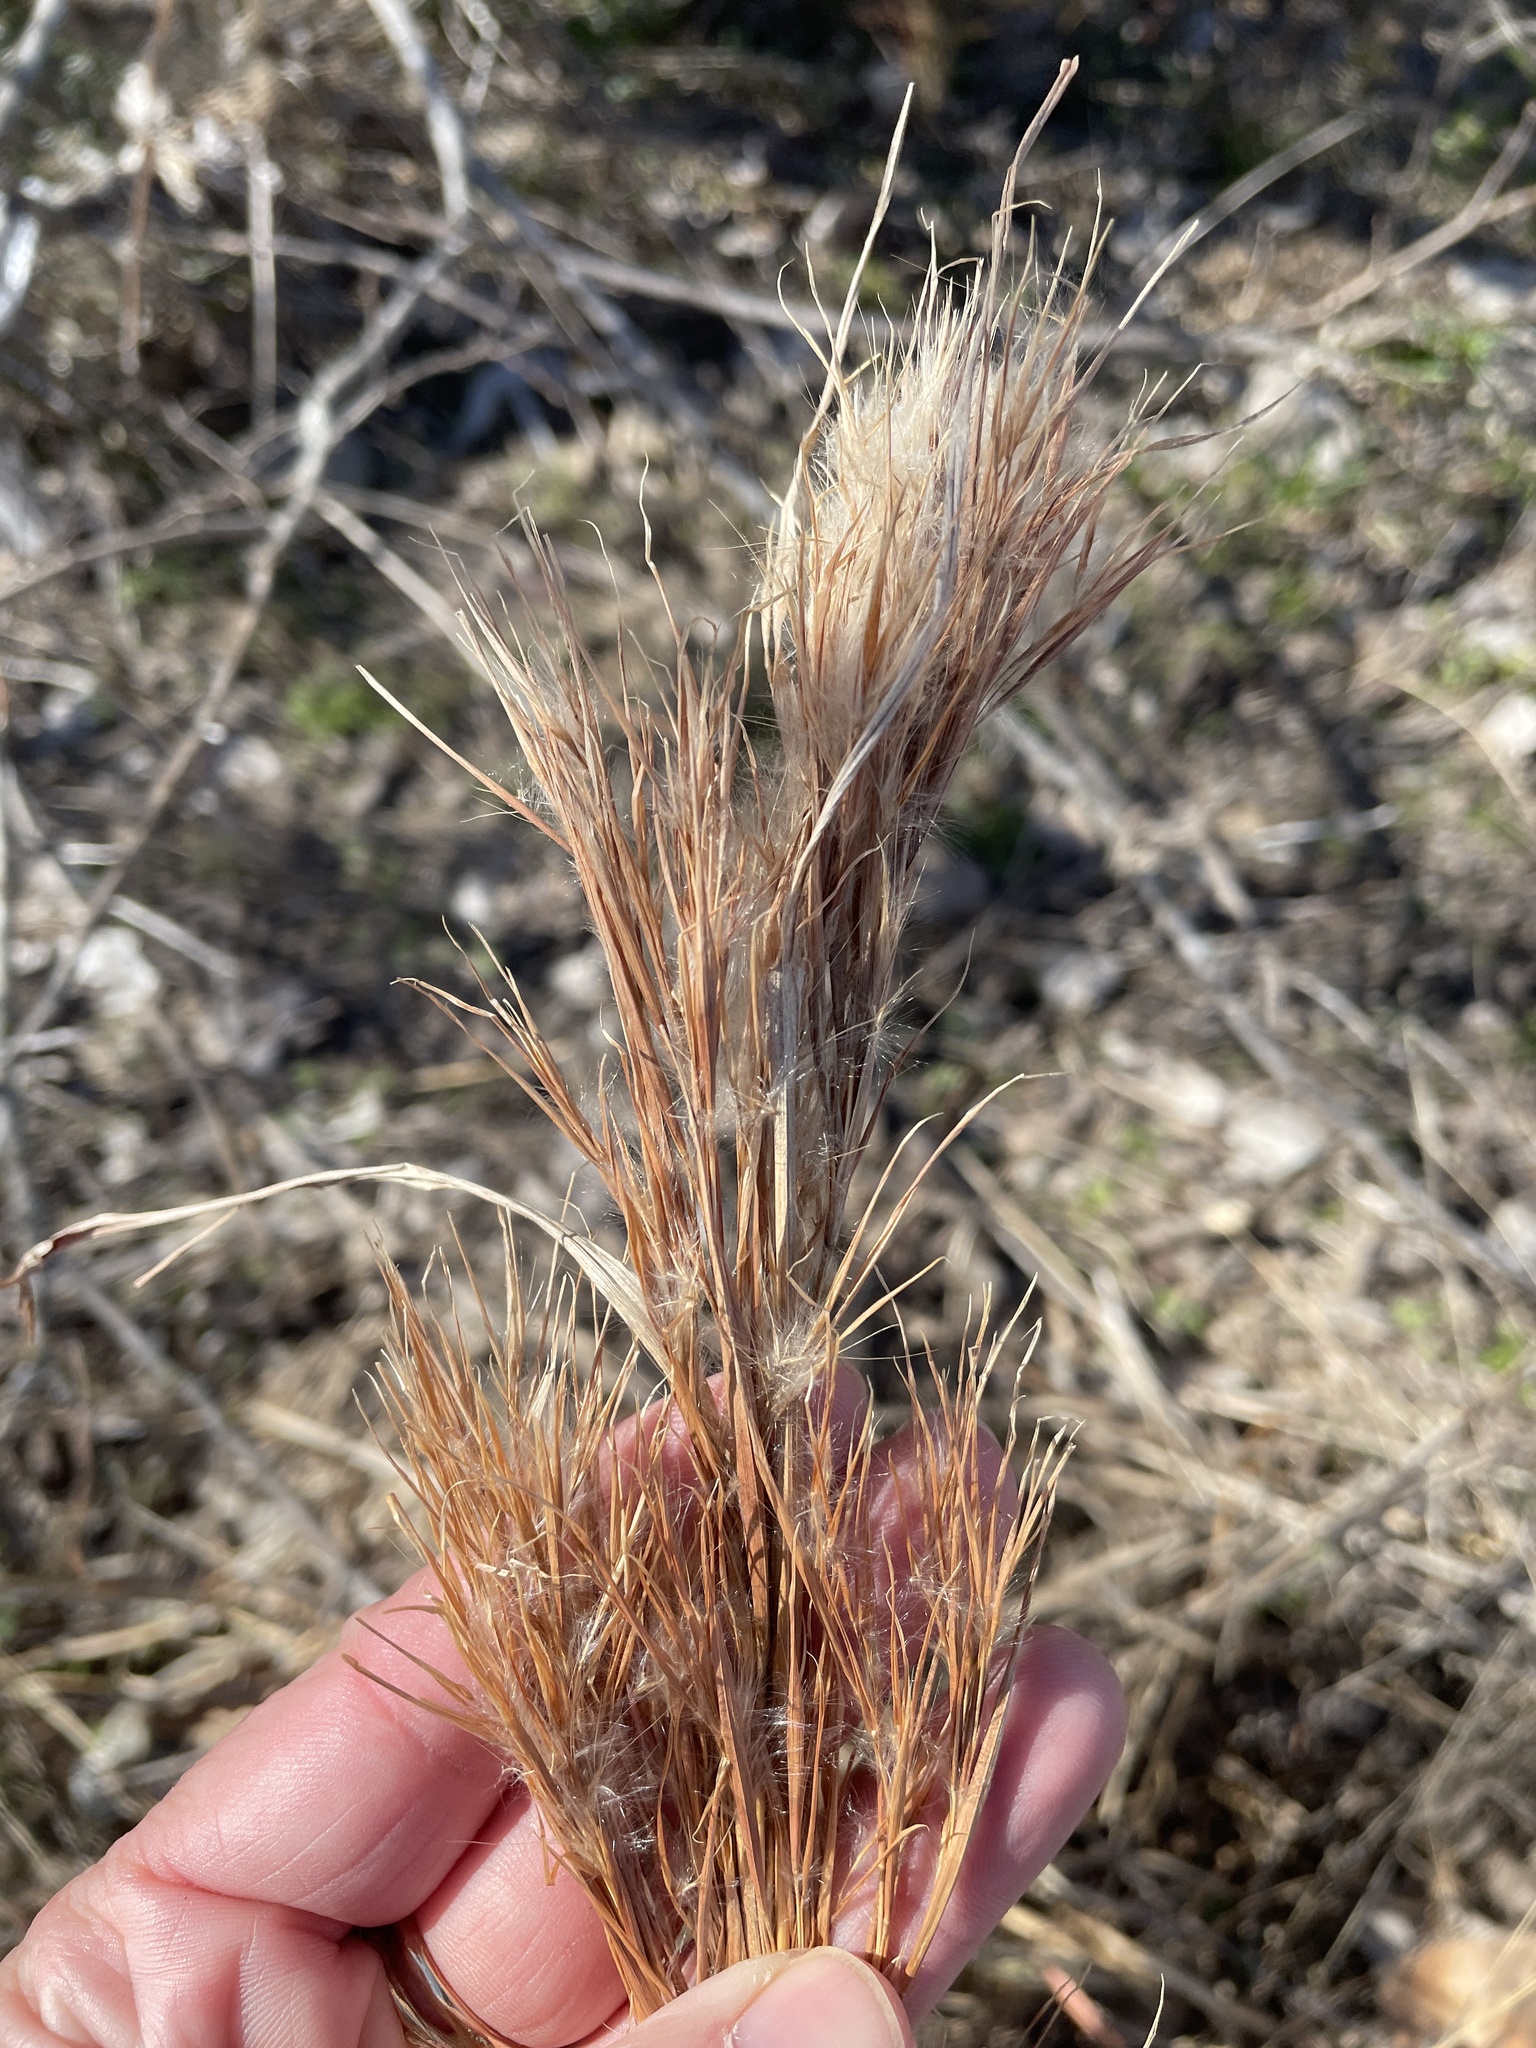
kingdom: Plantae
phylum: Tracheophyta
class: Liliopsida
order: Poales
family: Poaceae
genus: Andropogon
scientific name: Andropogon tenuispatheus
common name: Bushy bluestem
